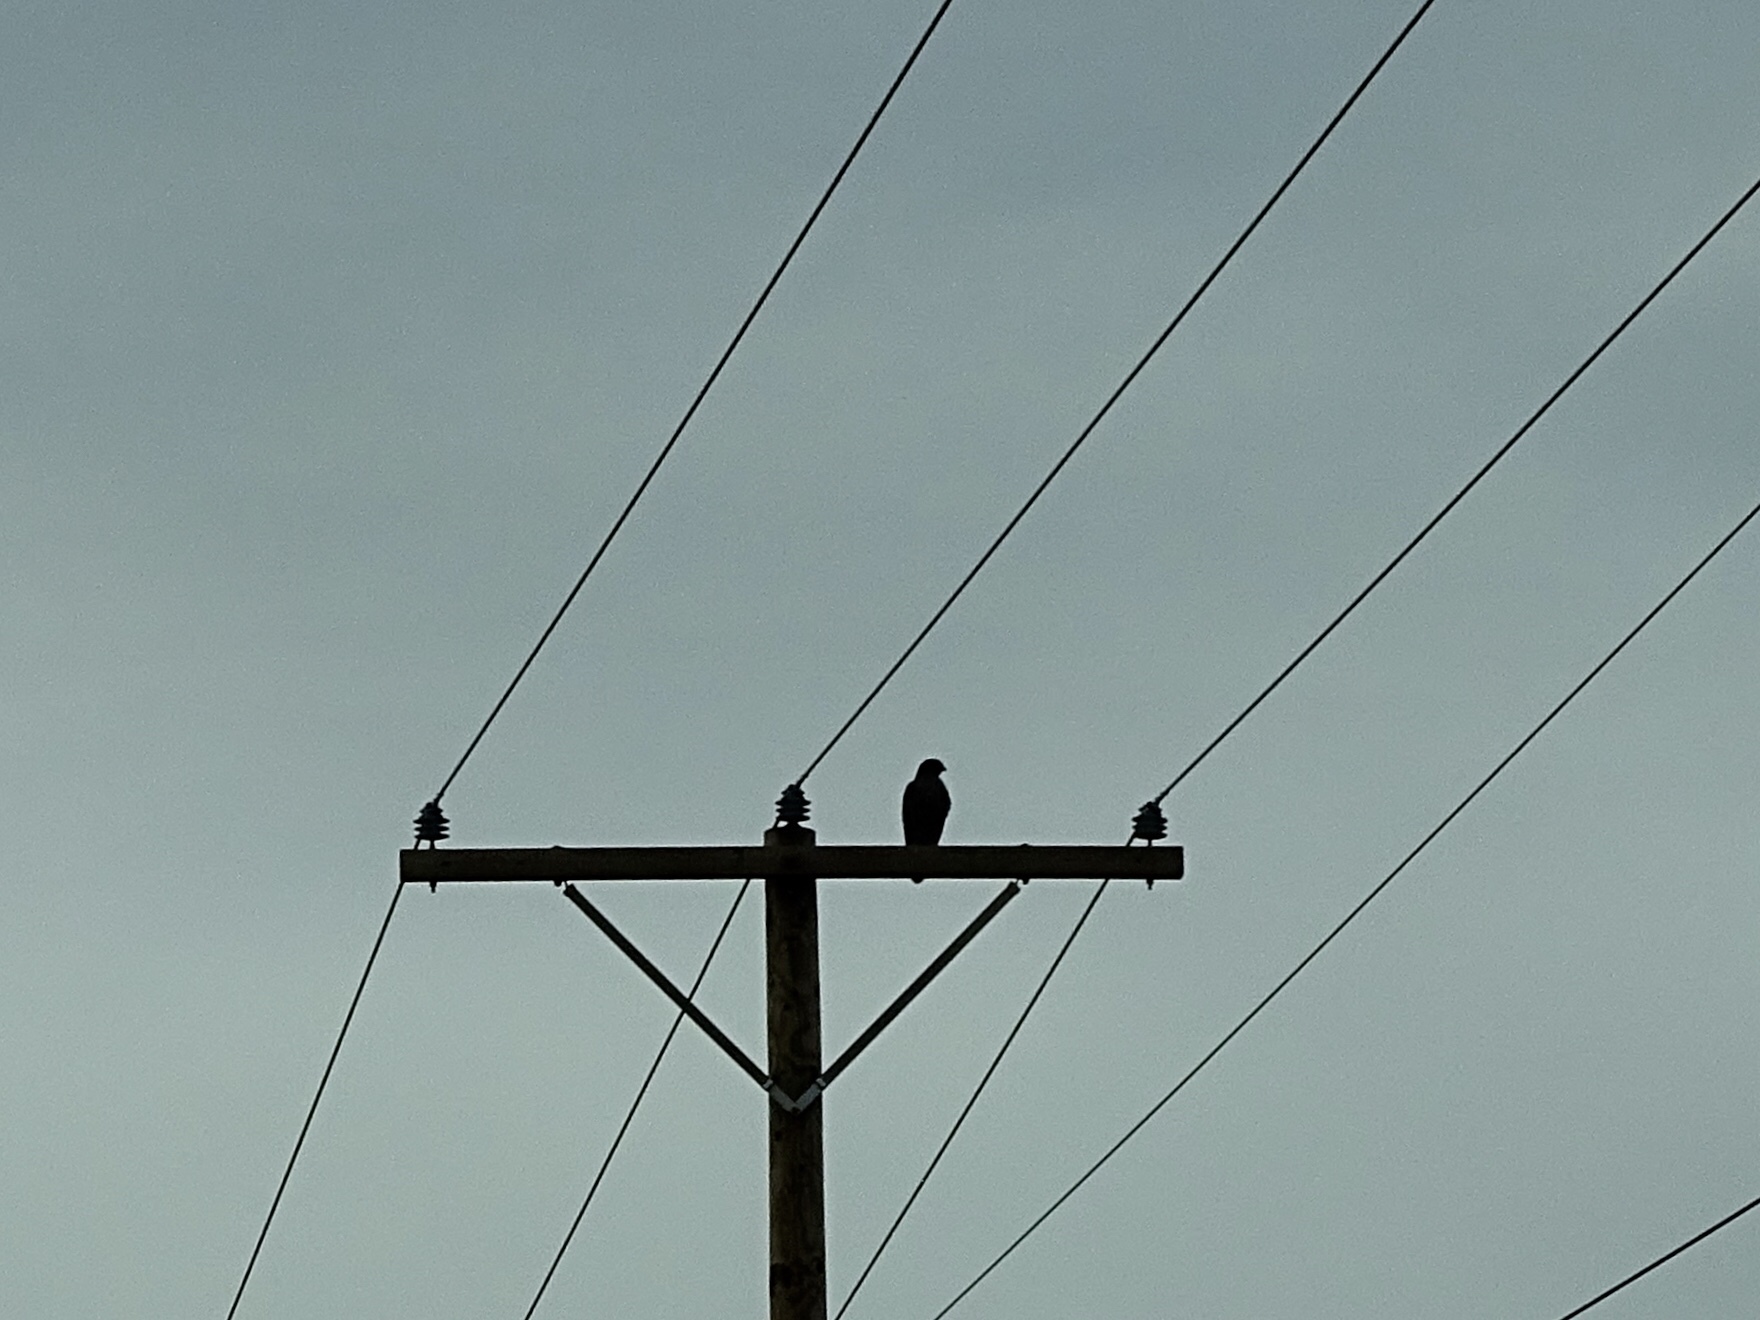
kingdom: Animalia
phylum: Chordata
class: Aves
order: Accipitriformes
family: Accipitridae
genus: Buteo
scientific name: Buteo jamaicensis
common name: Red-tailed hawk
